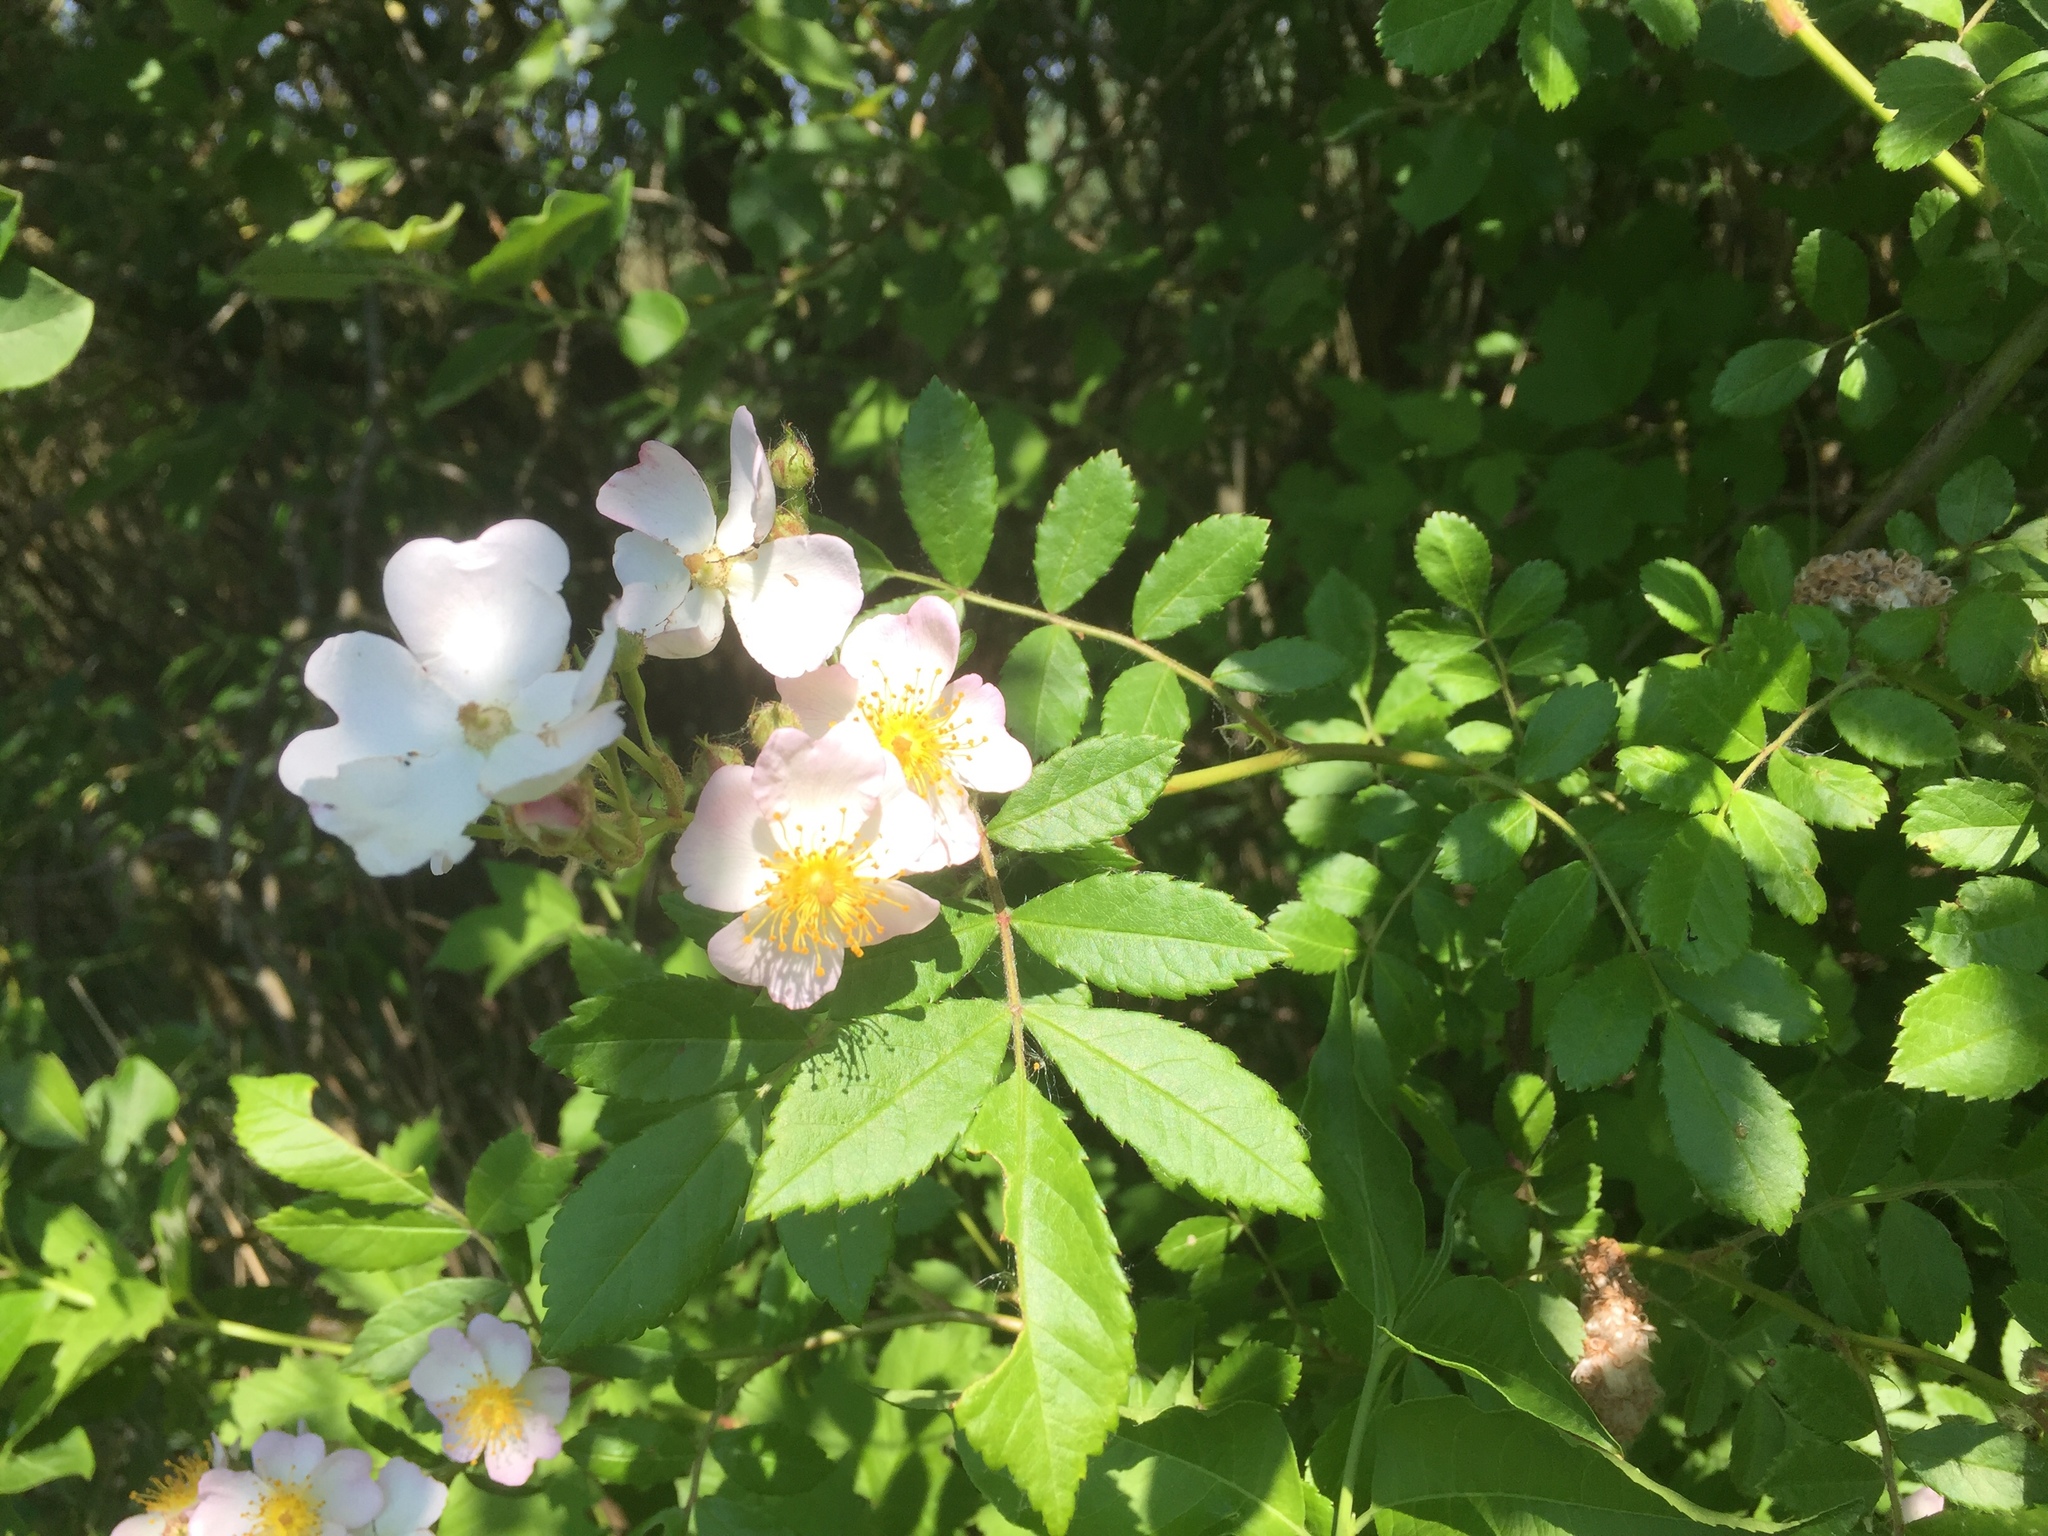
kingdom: Plantae
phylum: Tracheophyta
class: Magnoliopsida
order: Rosales
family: Rosaceae
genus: Rosa
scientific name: Rosa multiflora
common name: Multiflora rose
